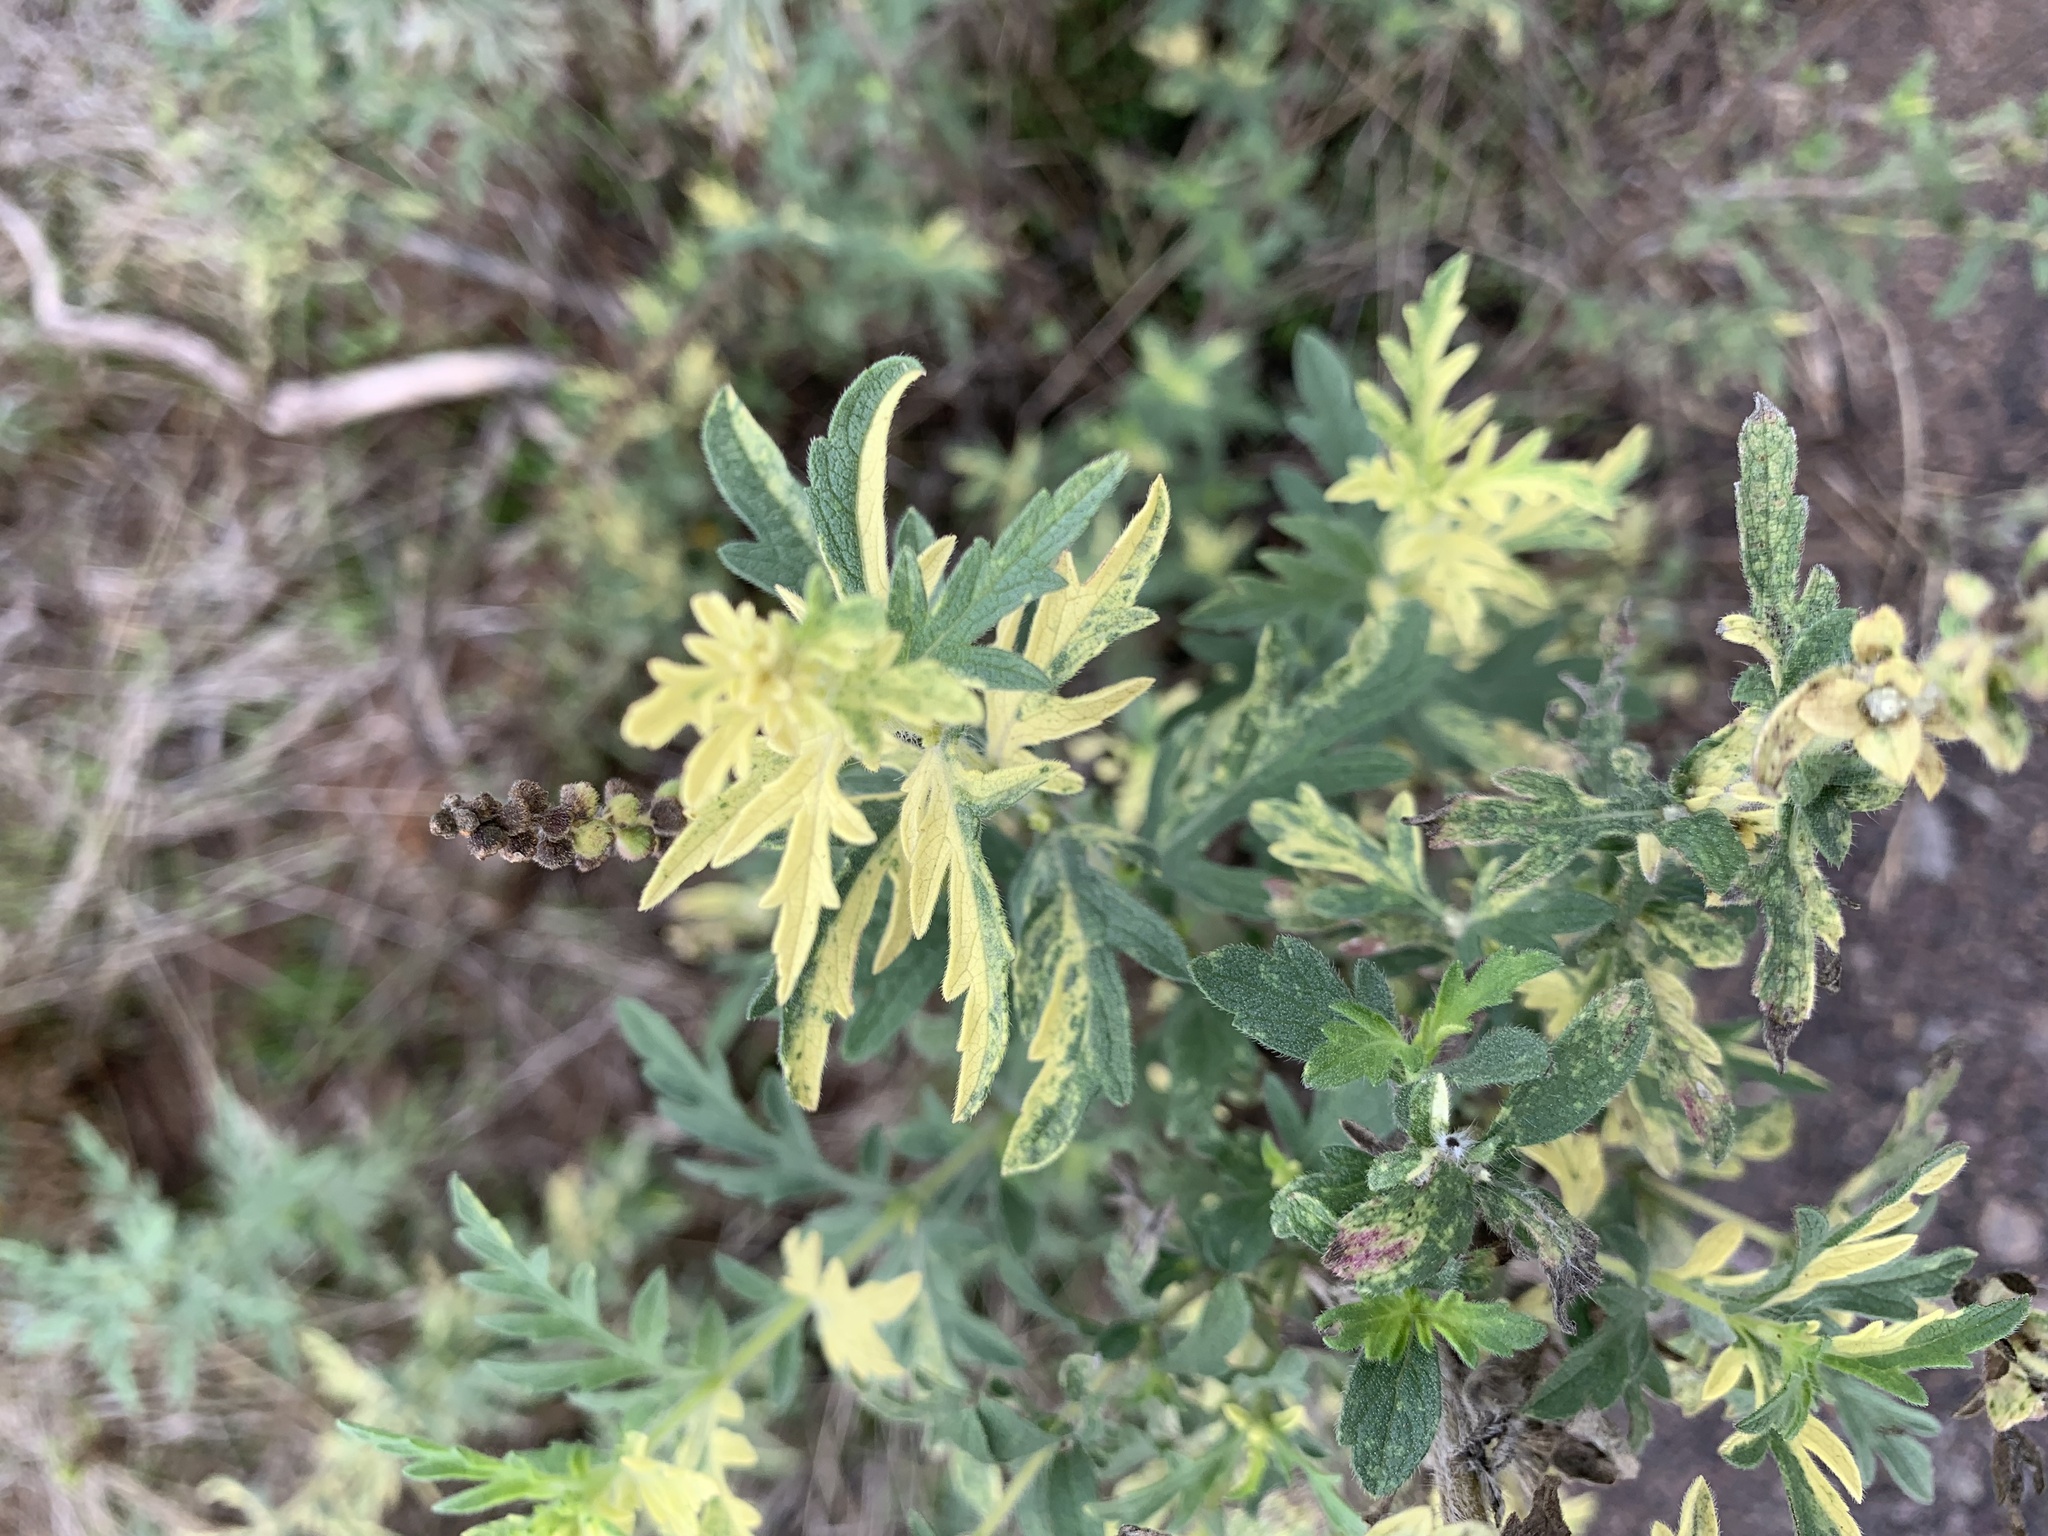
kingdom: Plantae
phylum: Tracheophyta
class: Magnoliopsida
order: Asterales
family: Asteraceae
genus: Ambrosia
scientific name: Ambrosia psilostachya
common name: Perennial ragweed
